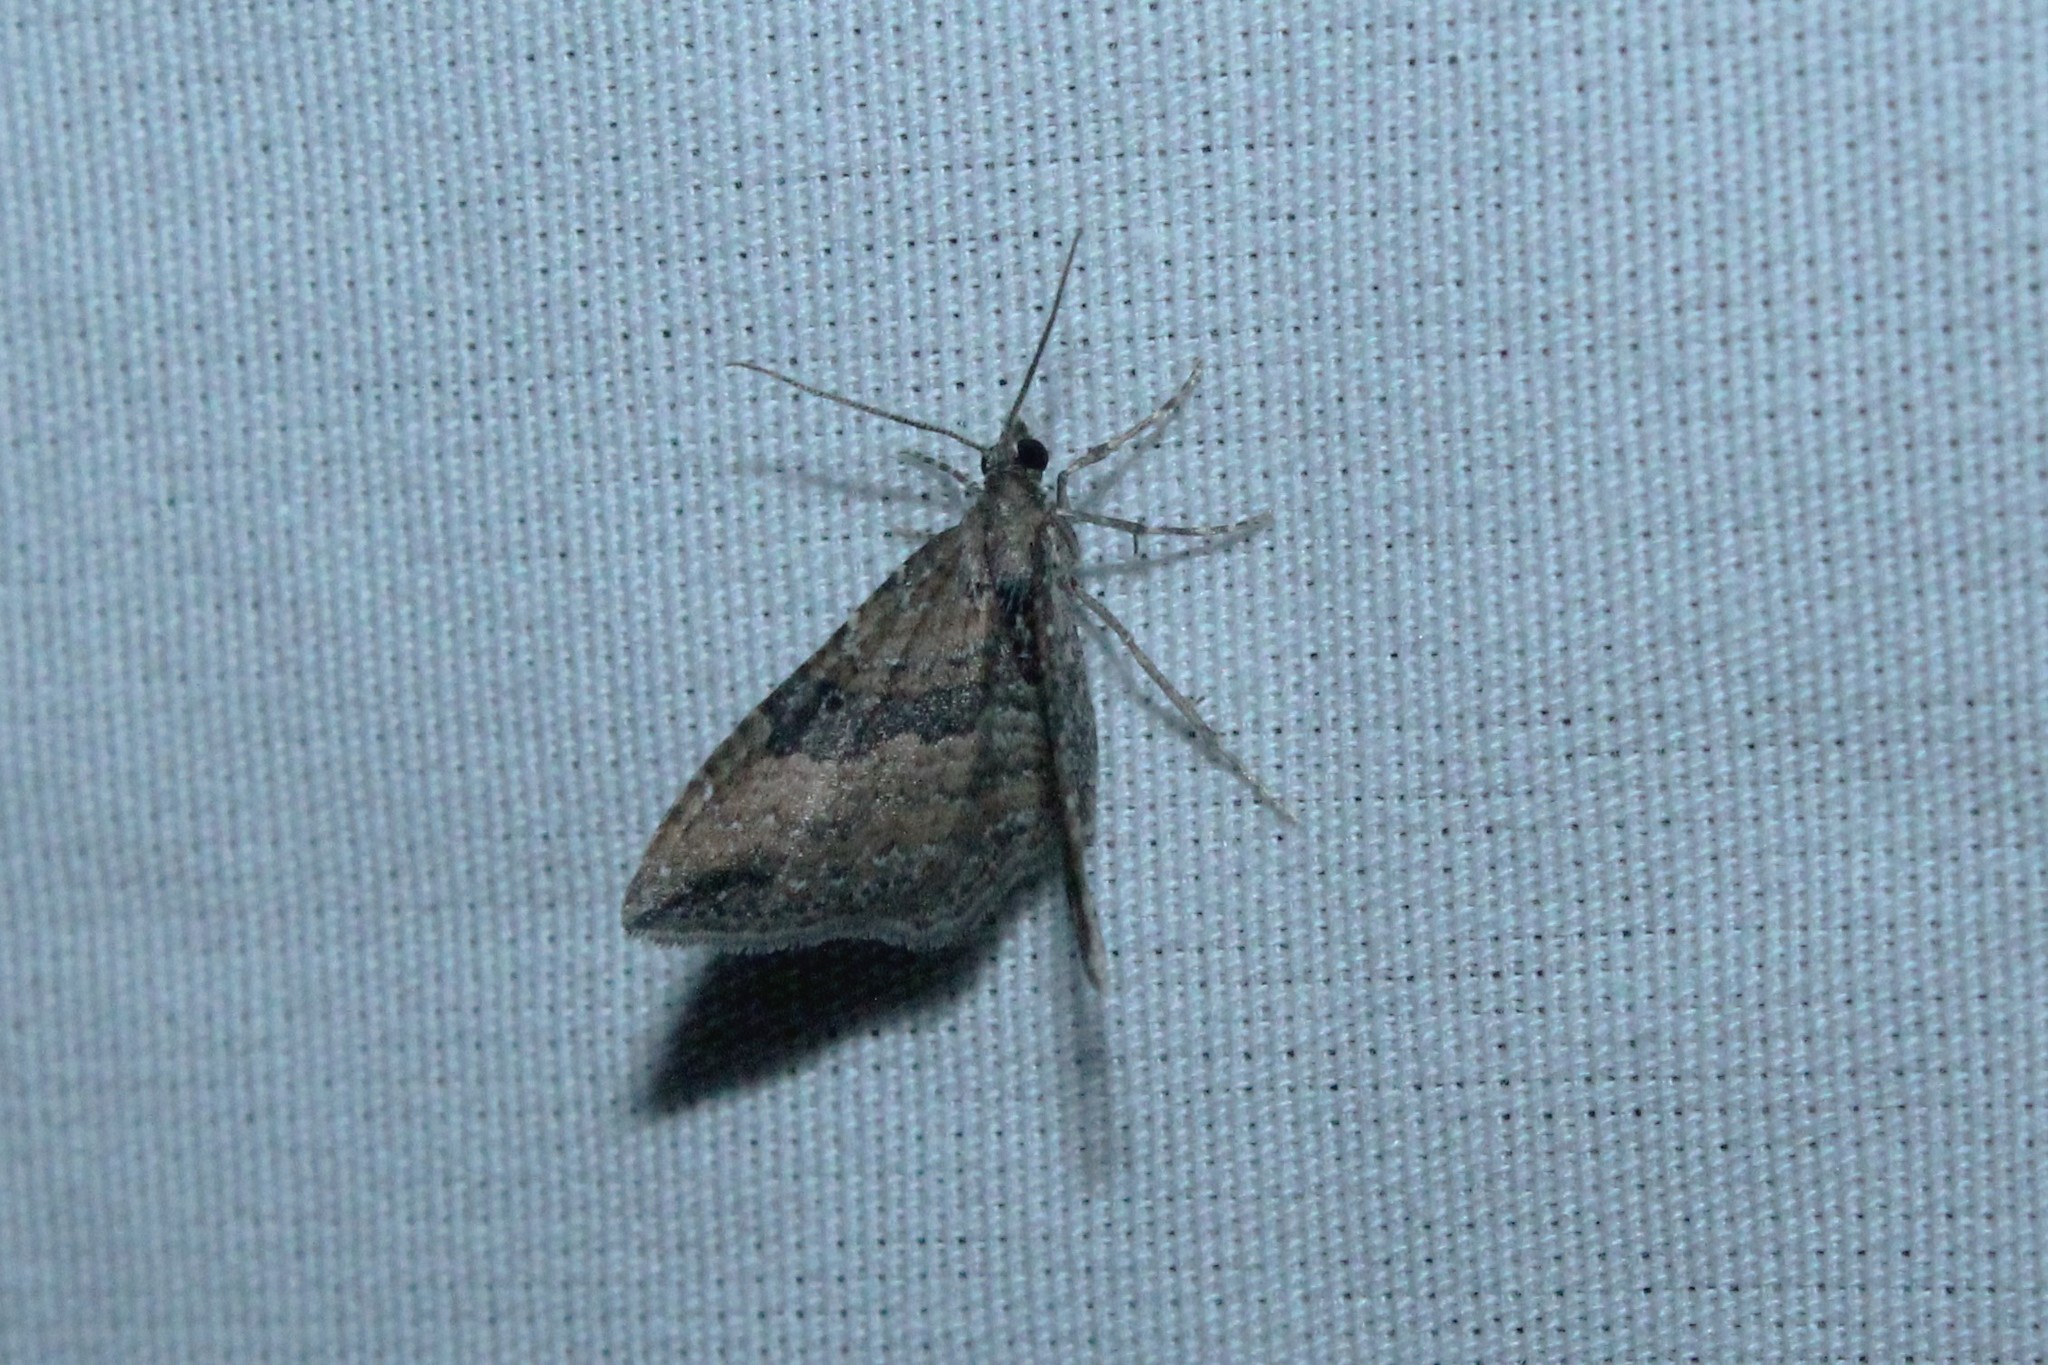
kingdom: Animalia
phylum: Arthropoda
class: Insecta
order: Lepidoptera
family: Geometridae
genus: Orthonama
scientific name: Orthonama obstipata
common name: The gem
